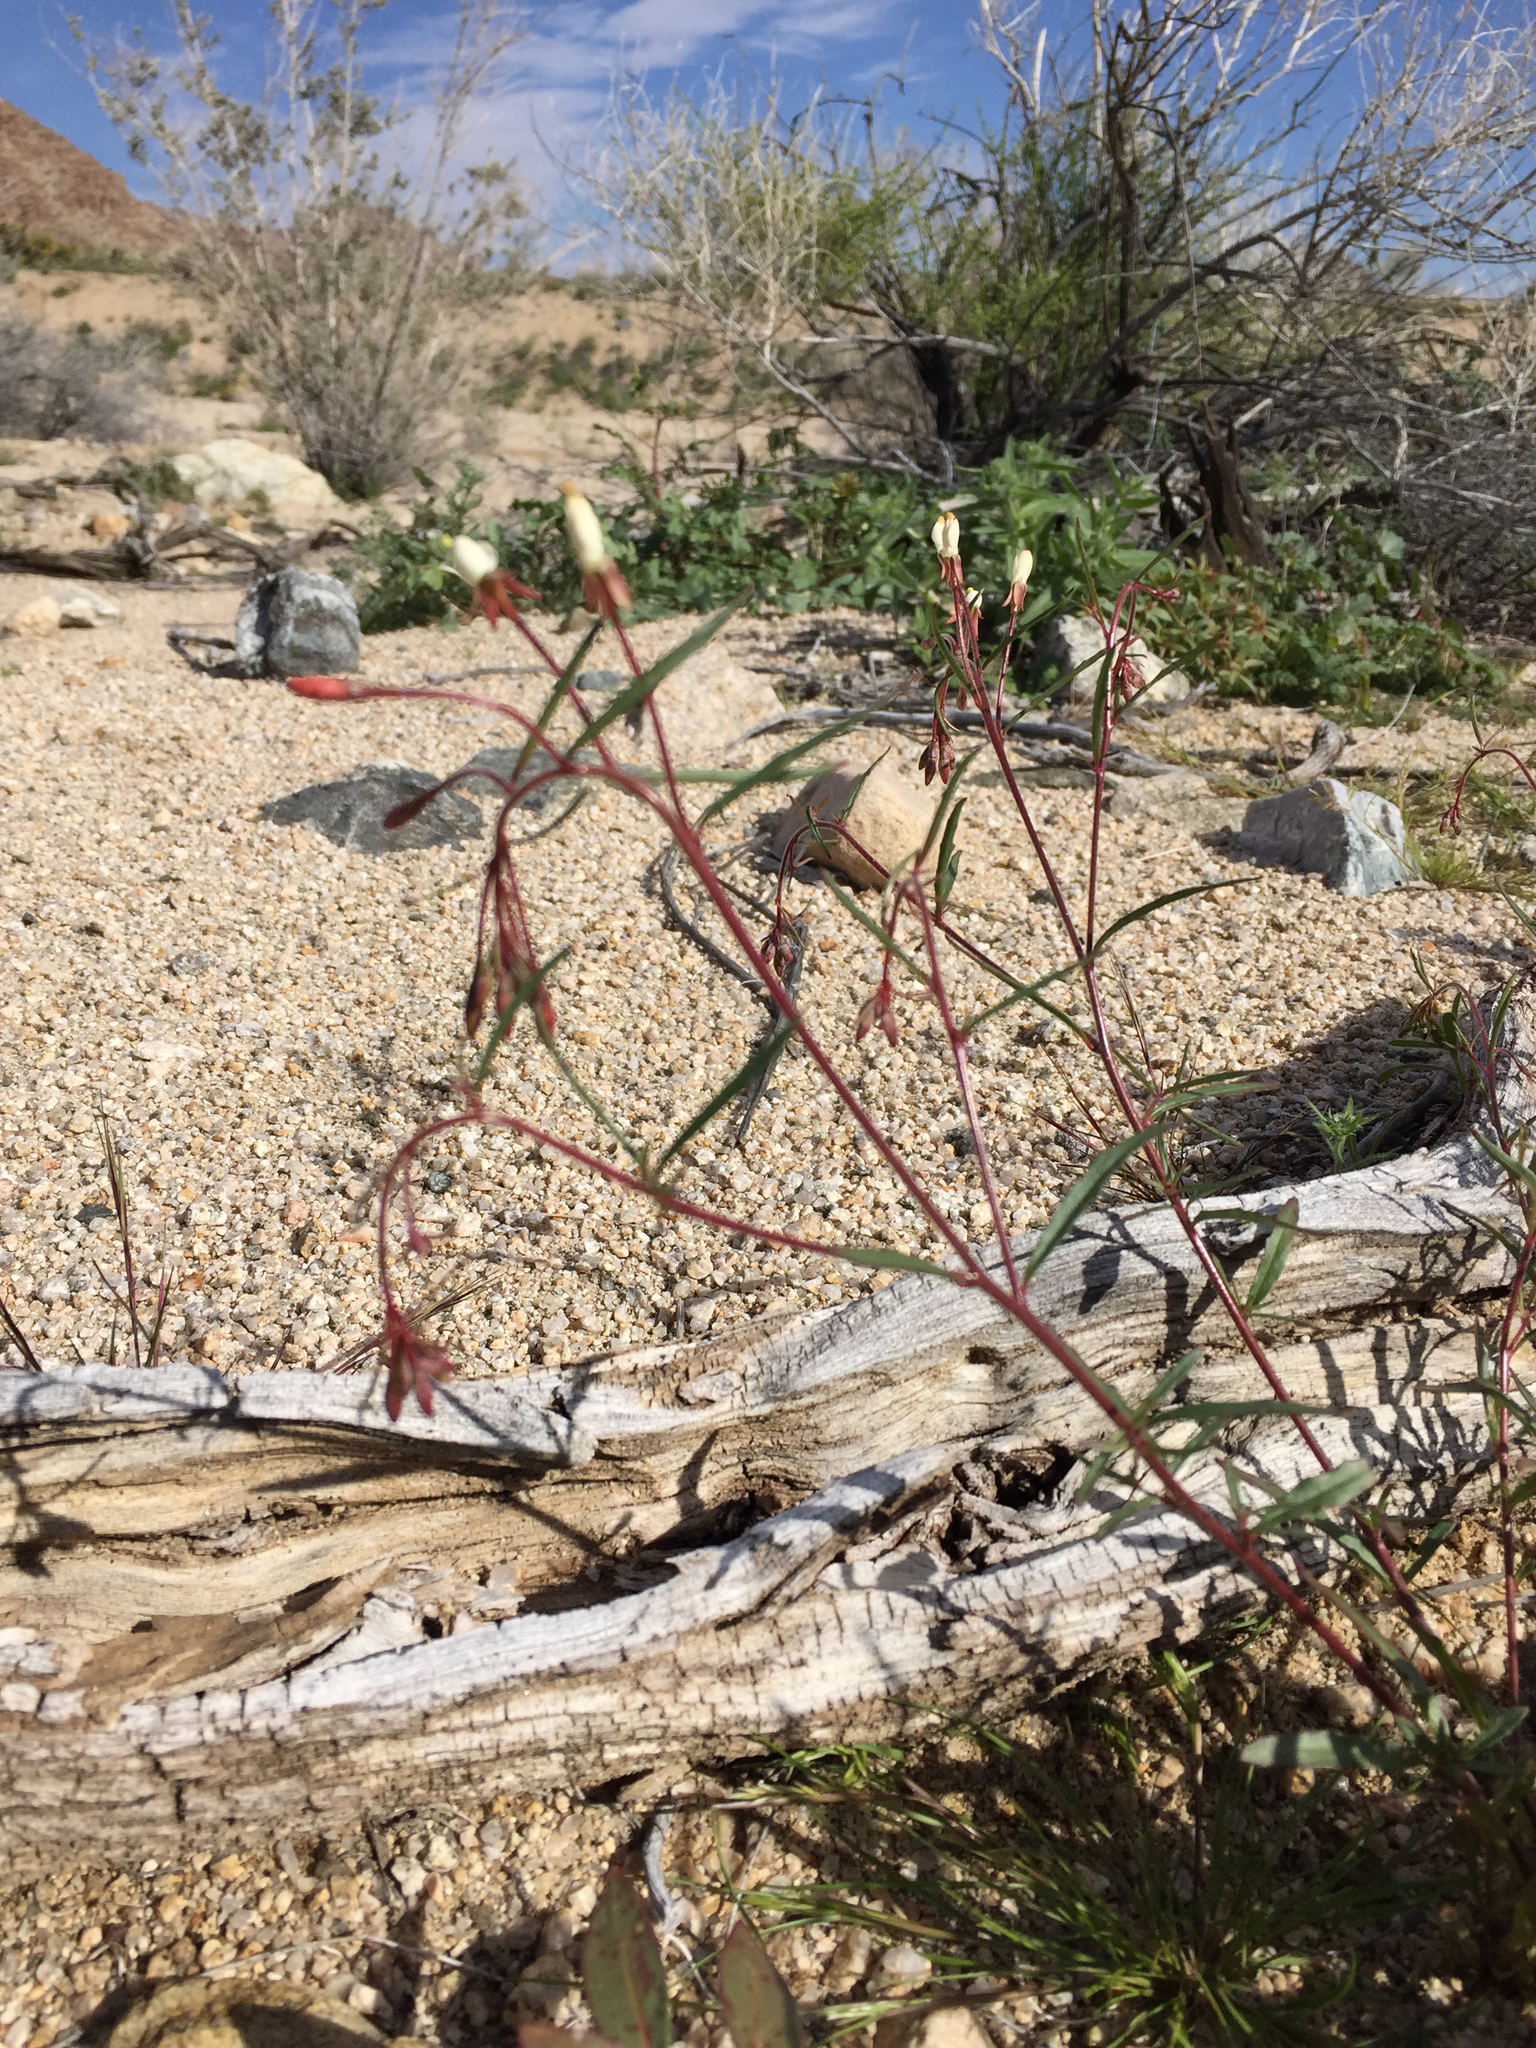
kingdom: Plantae
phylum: Tracheophyta
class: Magnoliopsida
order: Myrtales
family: Onagraceae
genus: Eremothera
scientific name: Eremothera refracta
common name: Narrowleaf suncup
